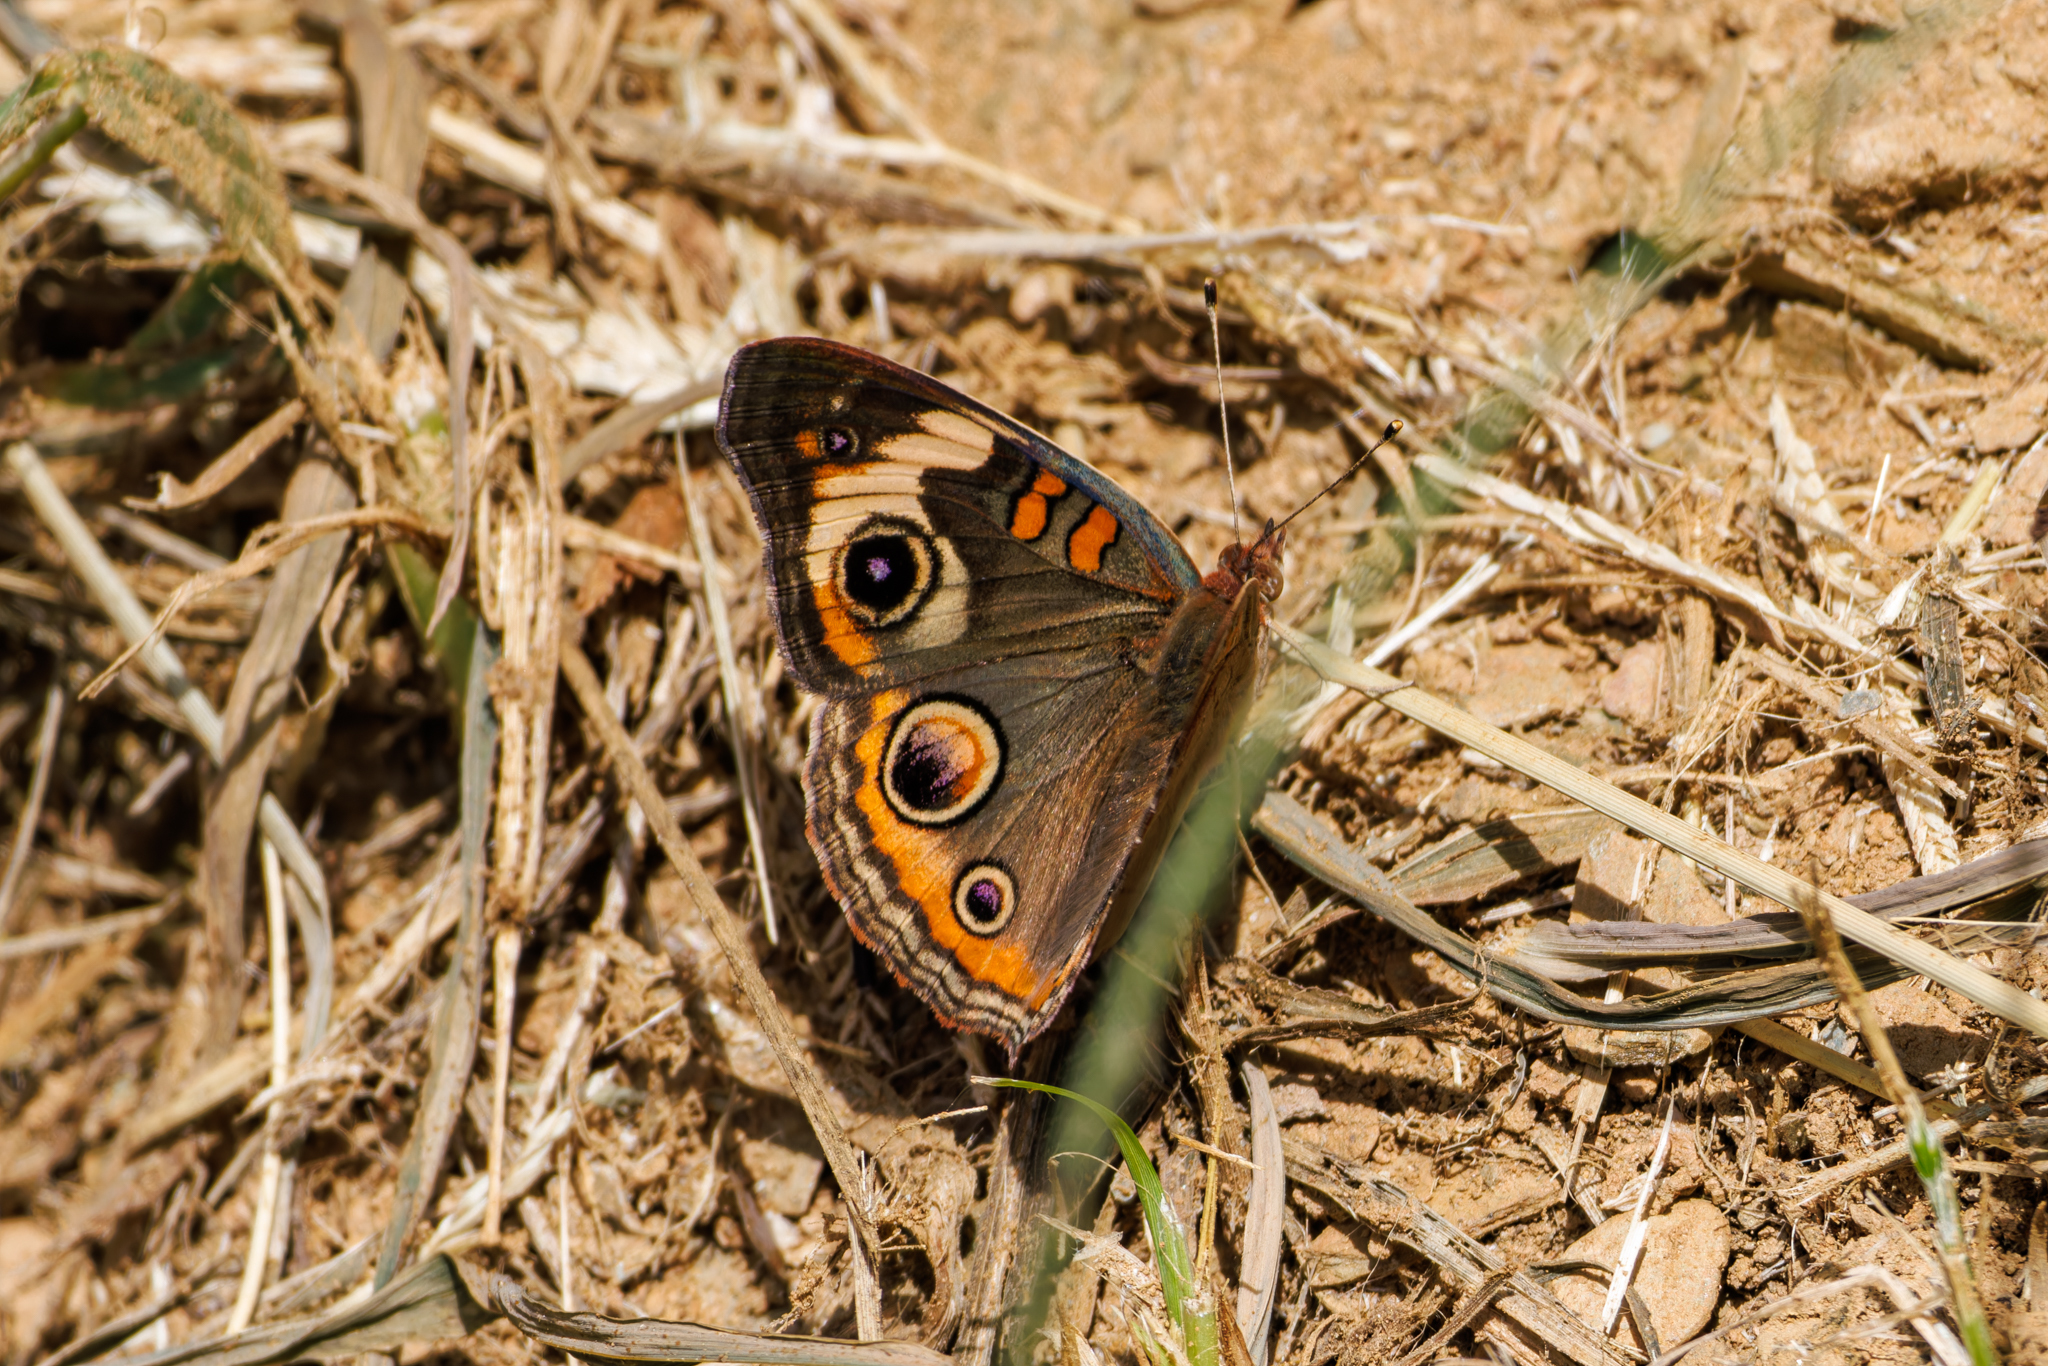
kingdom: Animalia
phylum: Arthropoda
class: Insecta
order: Lepidoptera
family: Nymphalidae
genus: Junonia
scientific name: Junonia coenia
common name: Common buckeye
